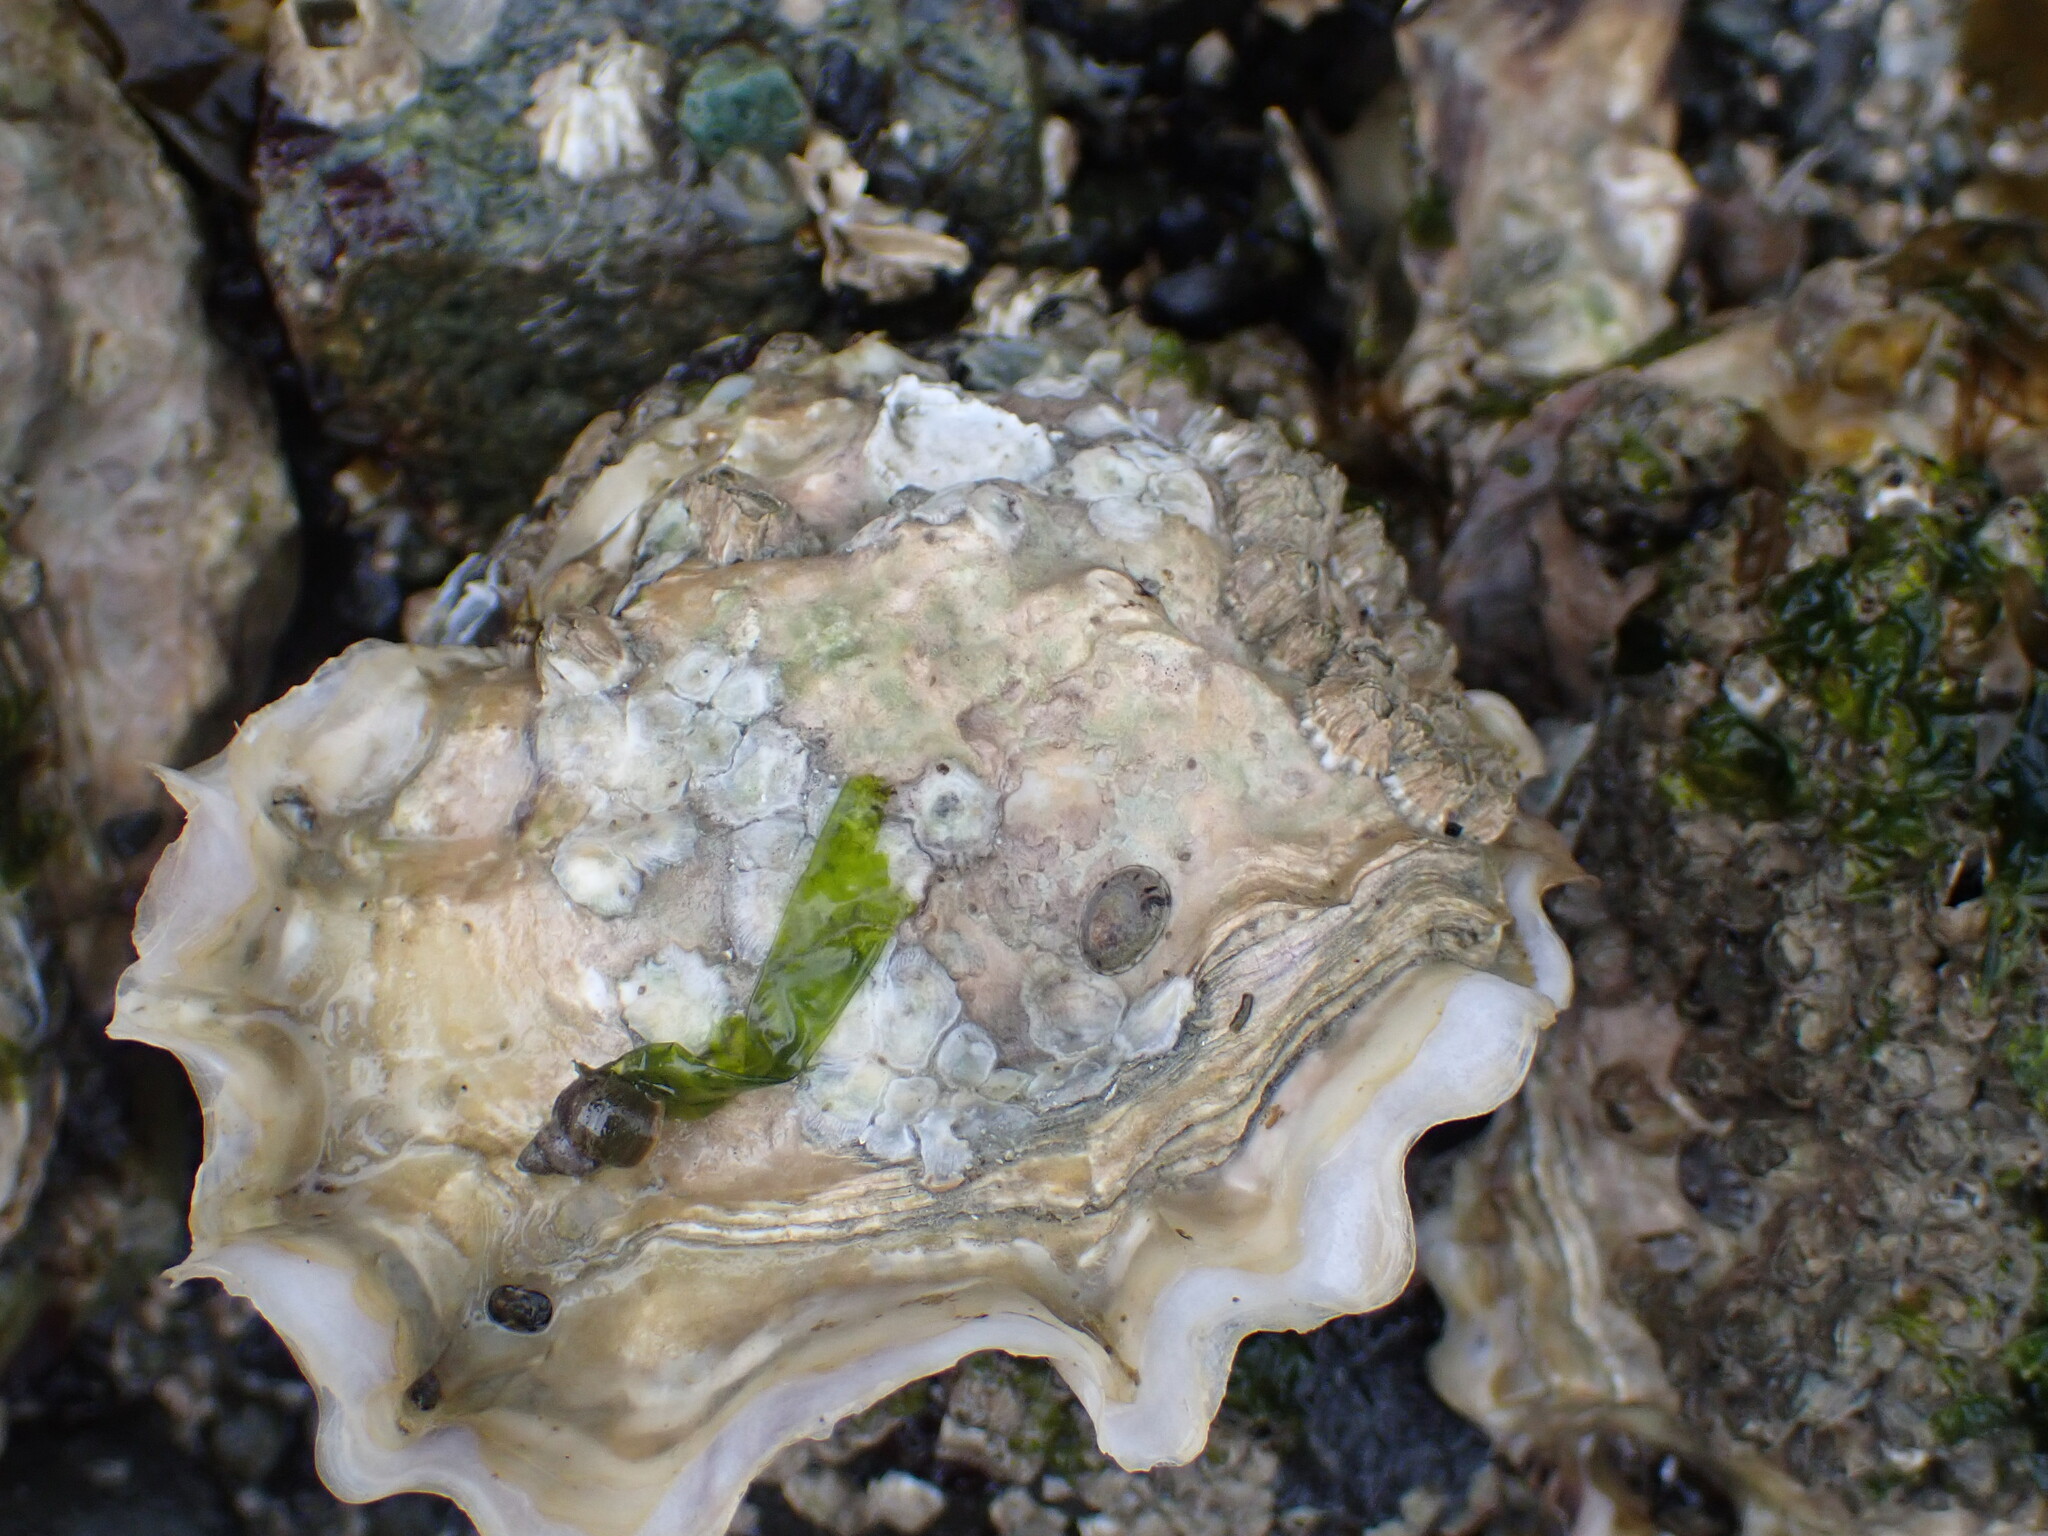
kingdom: Animalia
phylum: Mollusca
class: Bivalvia
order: Ostreida
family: Ostreidae
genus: Magallana
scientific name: Magallana gigas
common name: Pacific oyster
